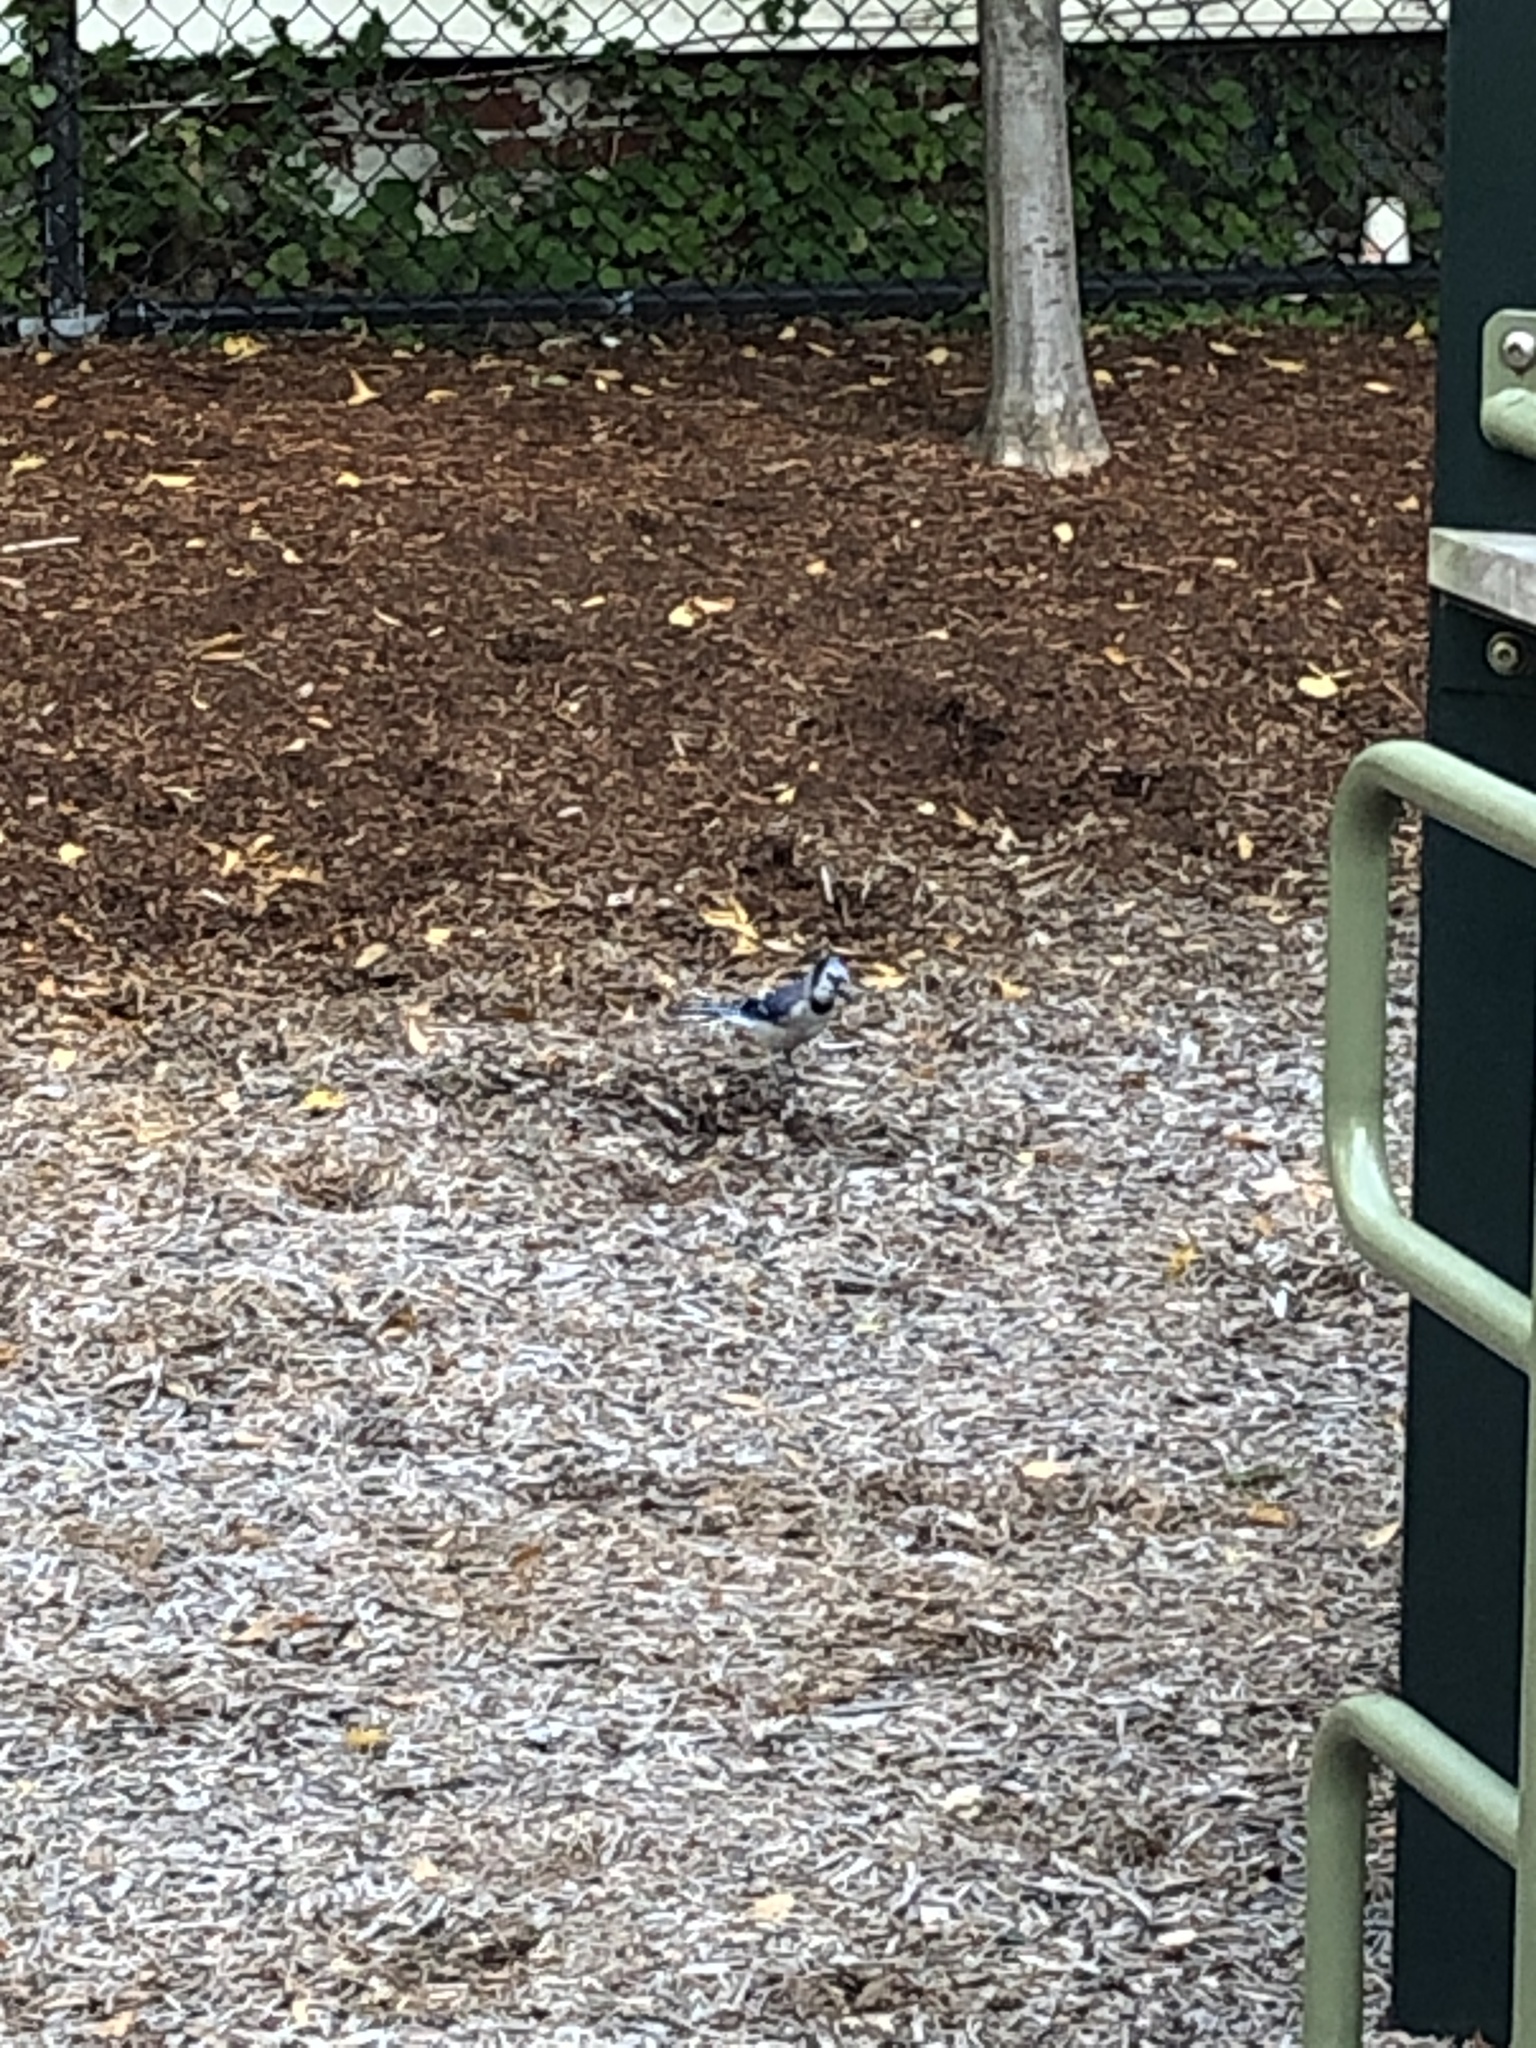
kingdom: Animalia
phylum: Chordata
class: Aves
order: Passeriformes
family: Corvidae
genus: Cyanocitta
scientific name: Cyanocitta cristata
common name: Blue jay
